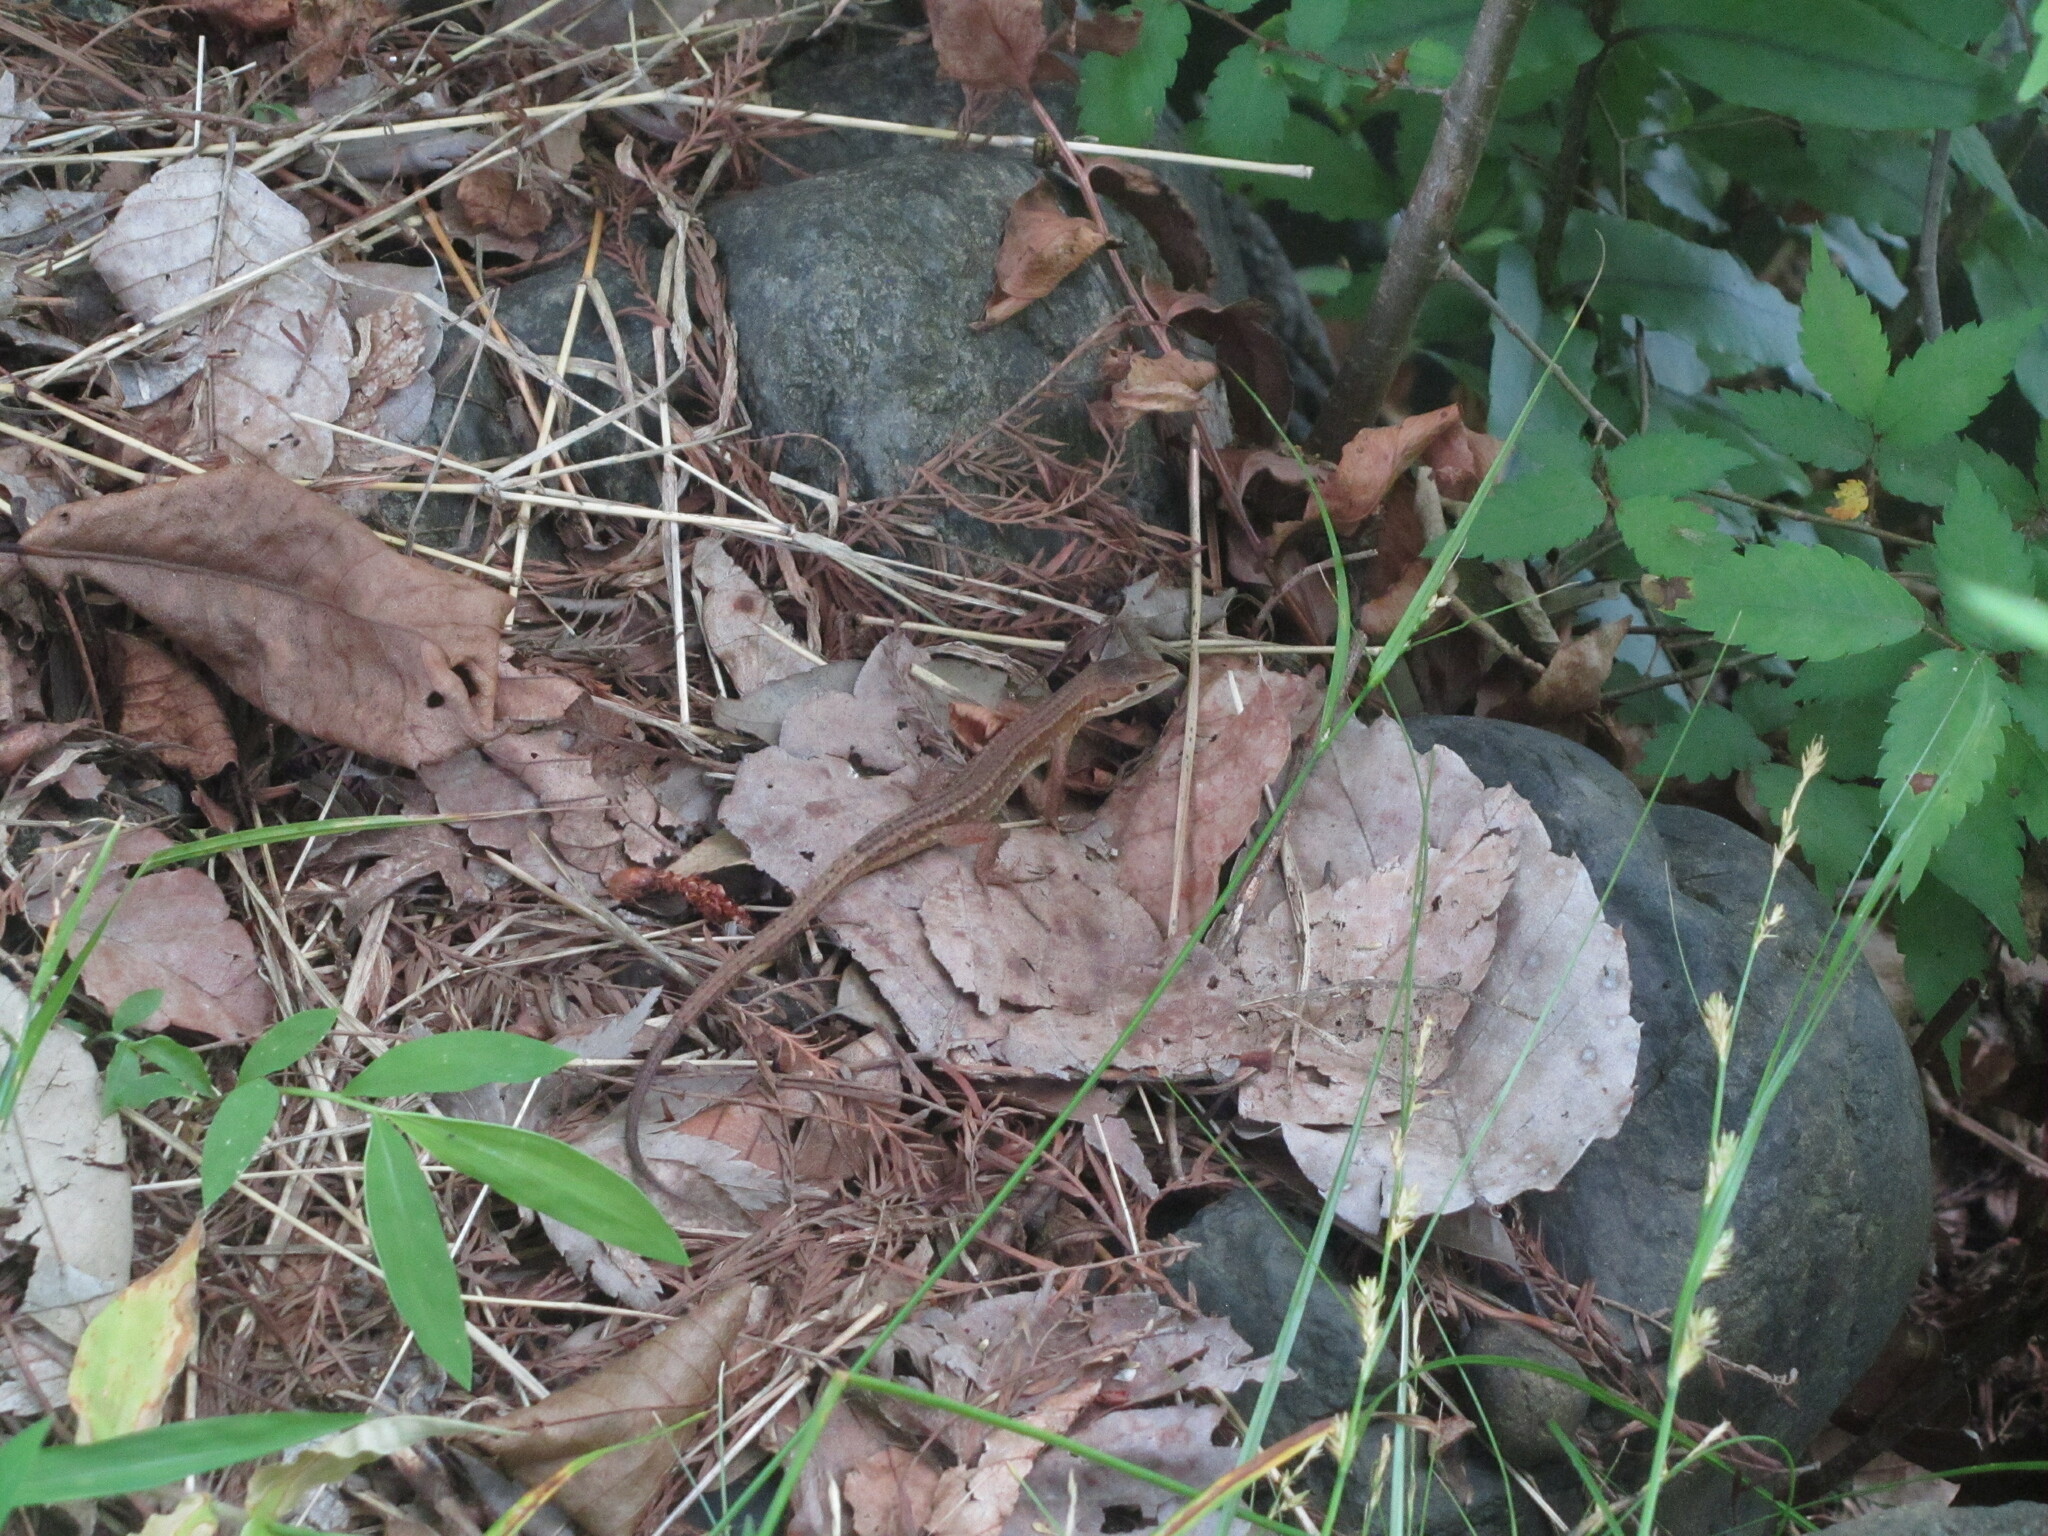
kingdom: Animalia
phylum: Chordata
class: Squamata
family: Lacertidae
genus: Takydromus
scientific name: Takydromus tachydromoides
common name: Japanese grass lizard
